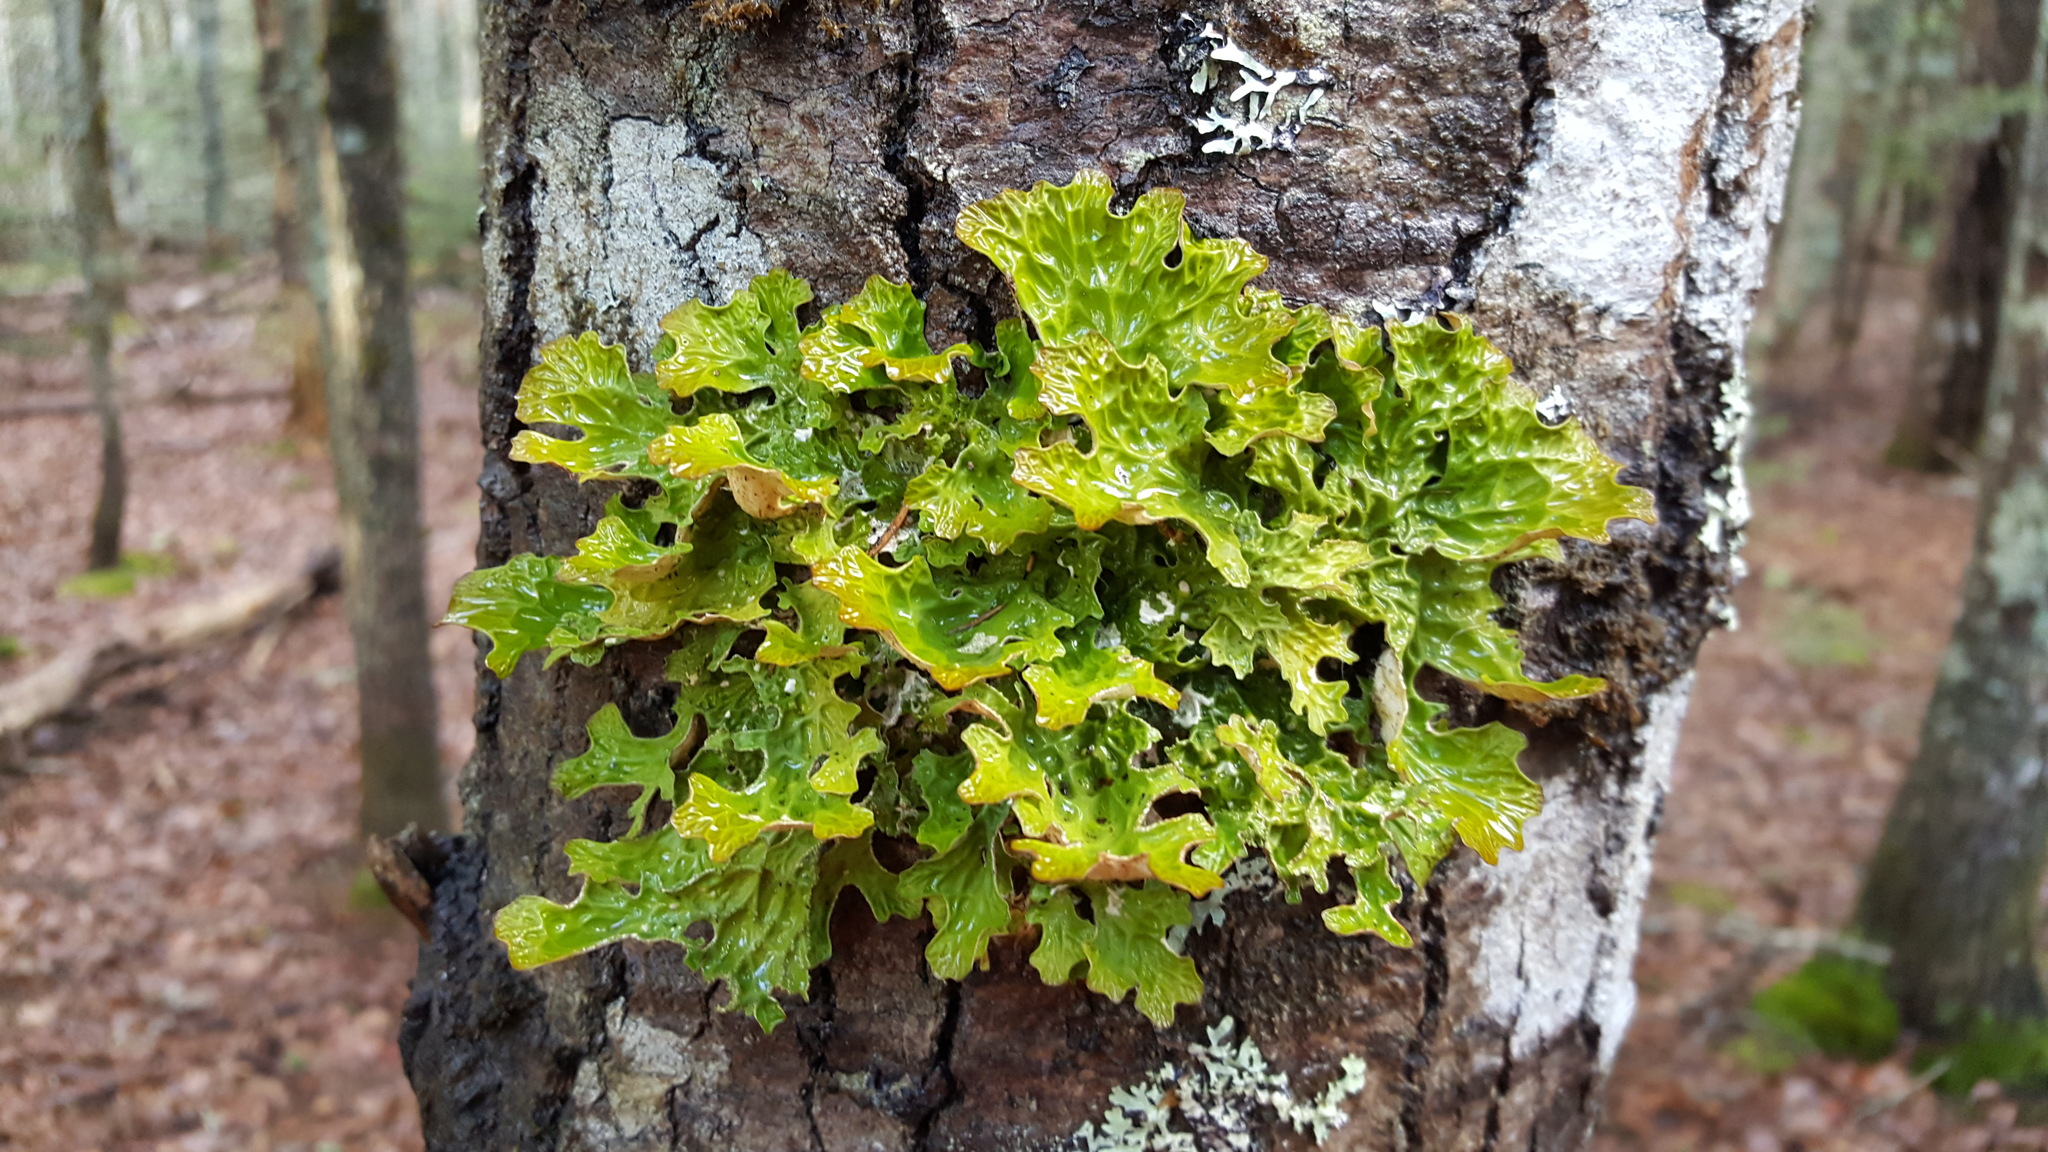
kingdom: Fungi
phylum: Ascomycota
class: Lecanoromycetes
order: Peltigerales
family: Lobariaceae
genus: Lobaria
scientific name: Lobaria pulmonaria
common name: Lungwort
